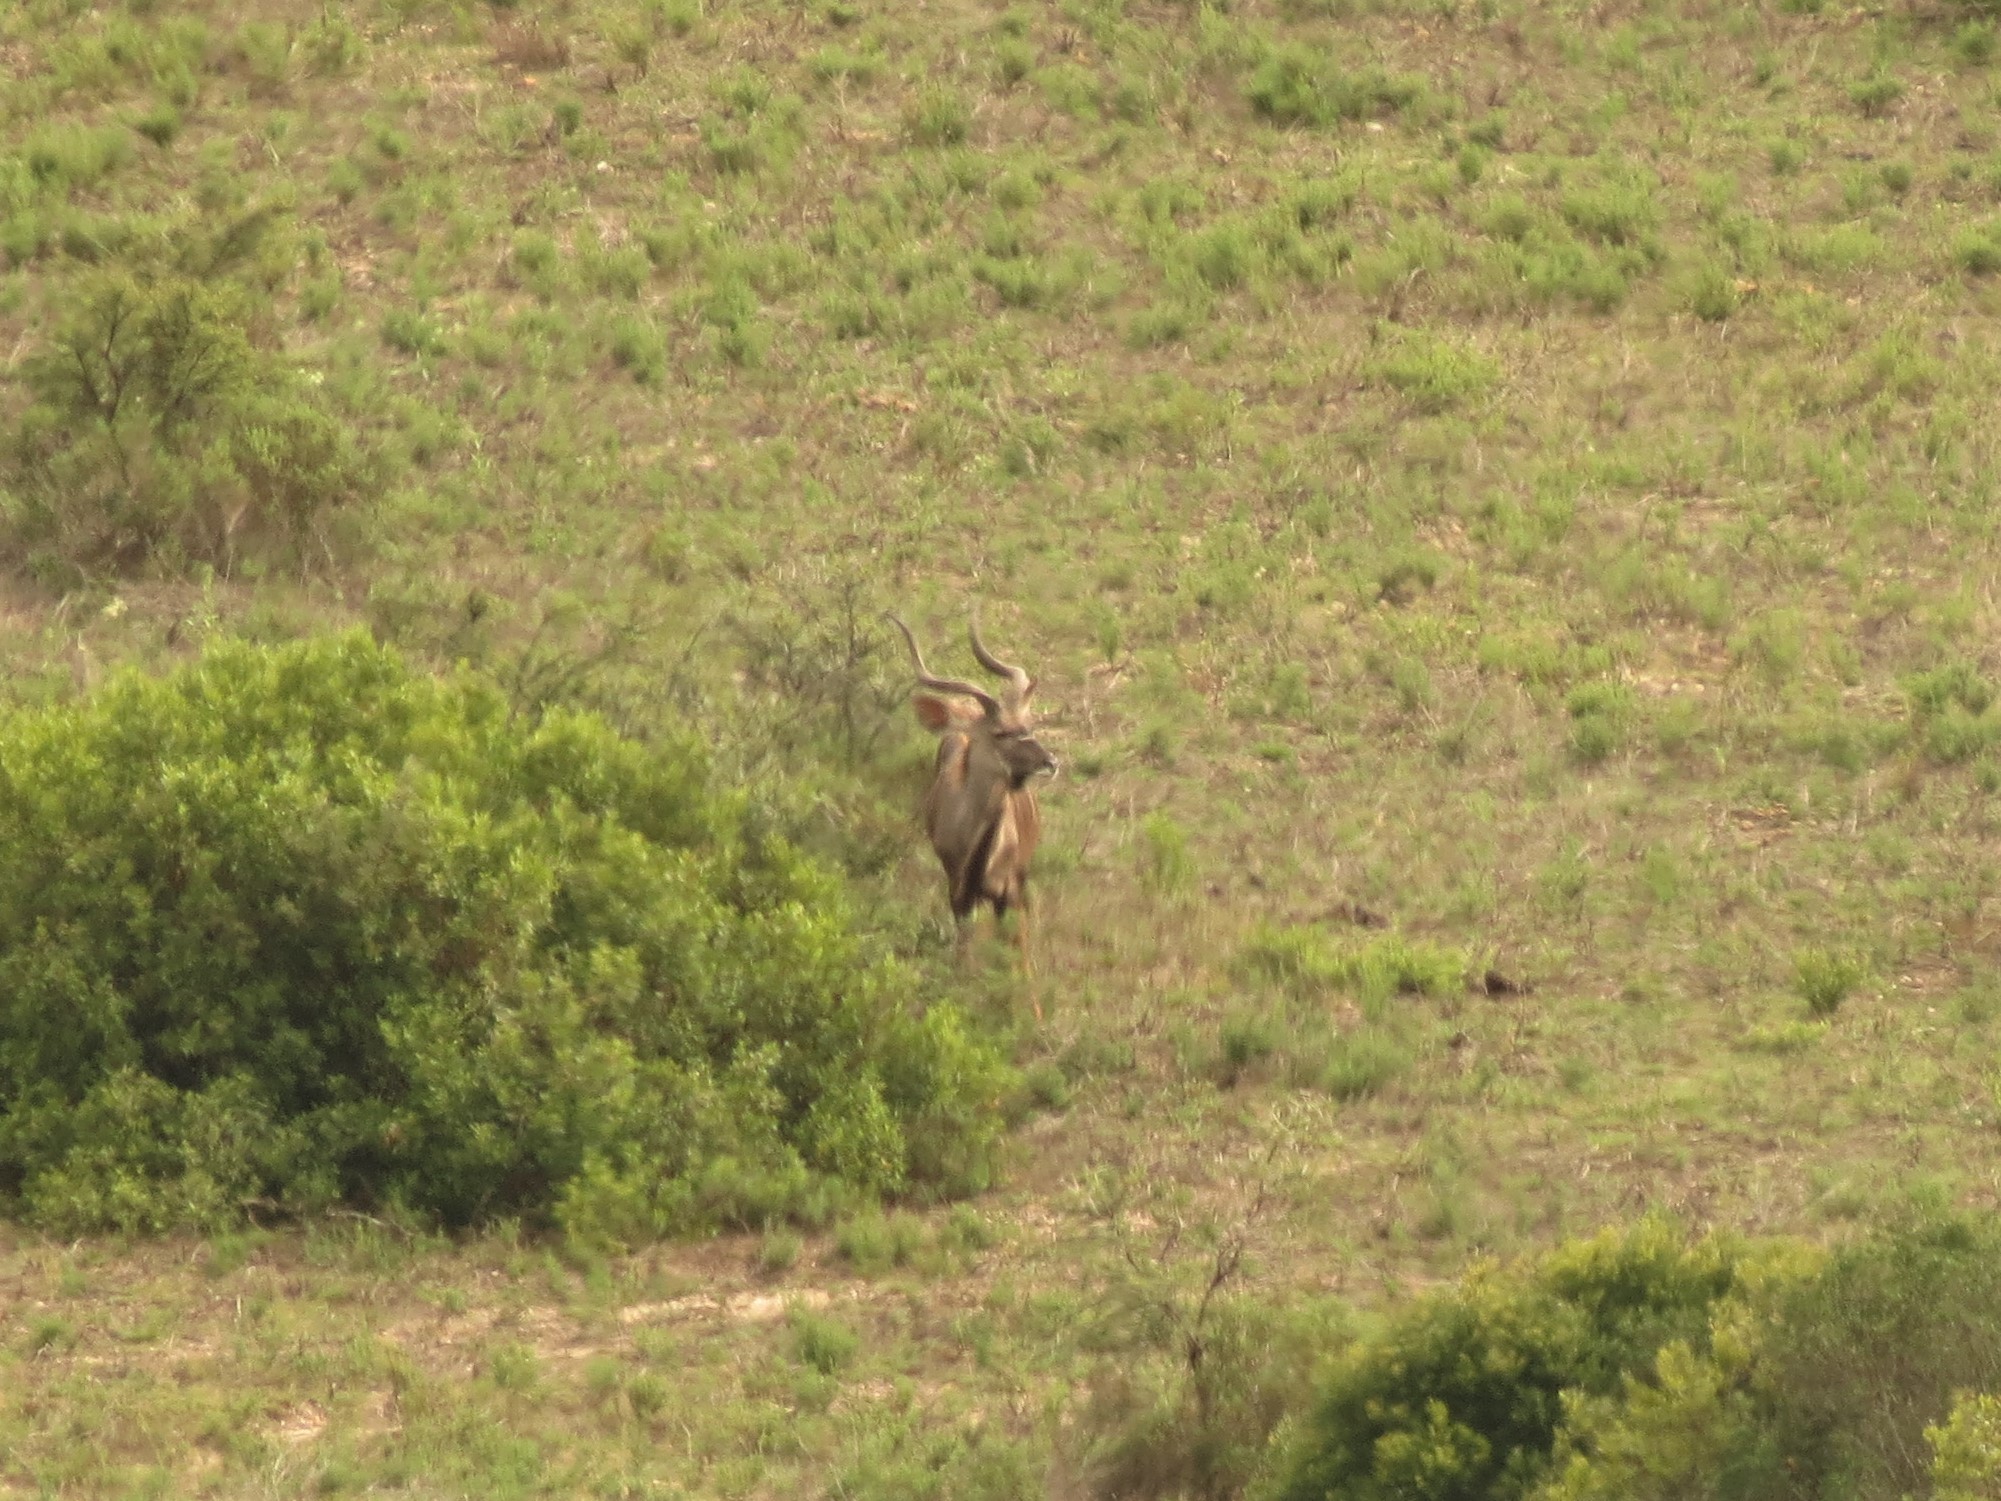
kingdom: Animalia
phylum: Chordata
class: Mammalia
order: Artiodactyla
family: Bovidae
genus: Tragelaphus
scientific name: Tragelaphus strepsiceros
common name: Greater kudu
